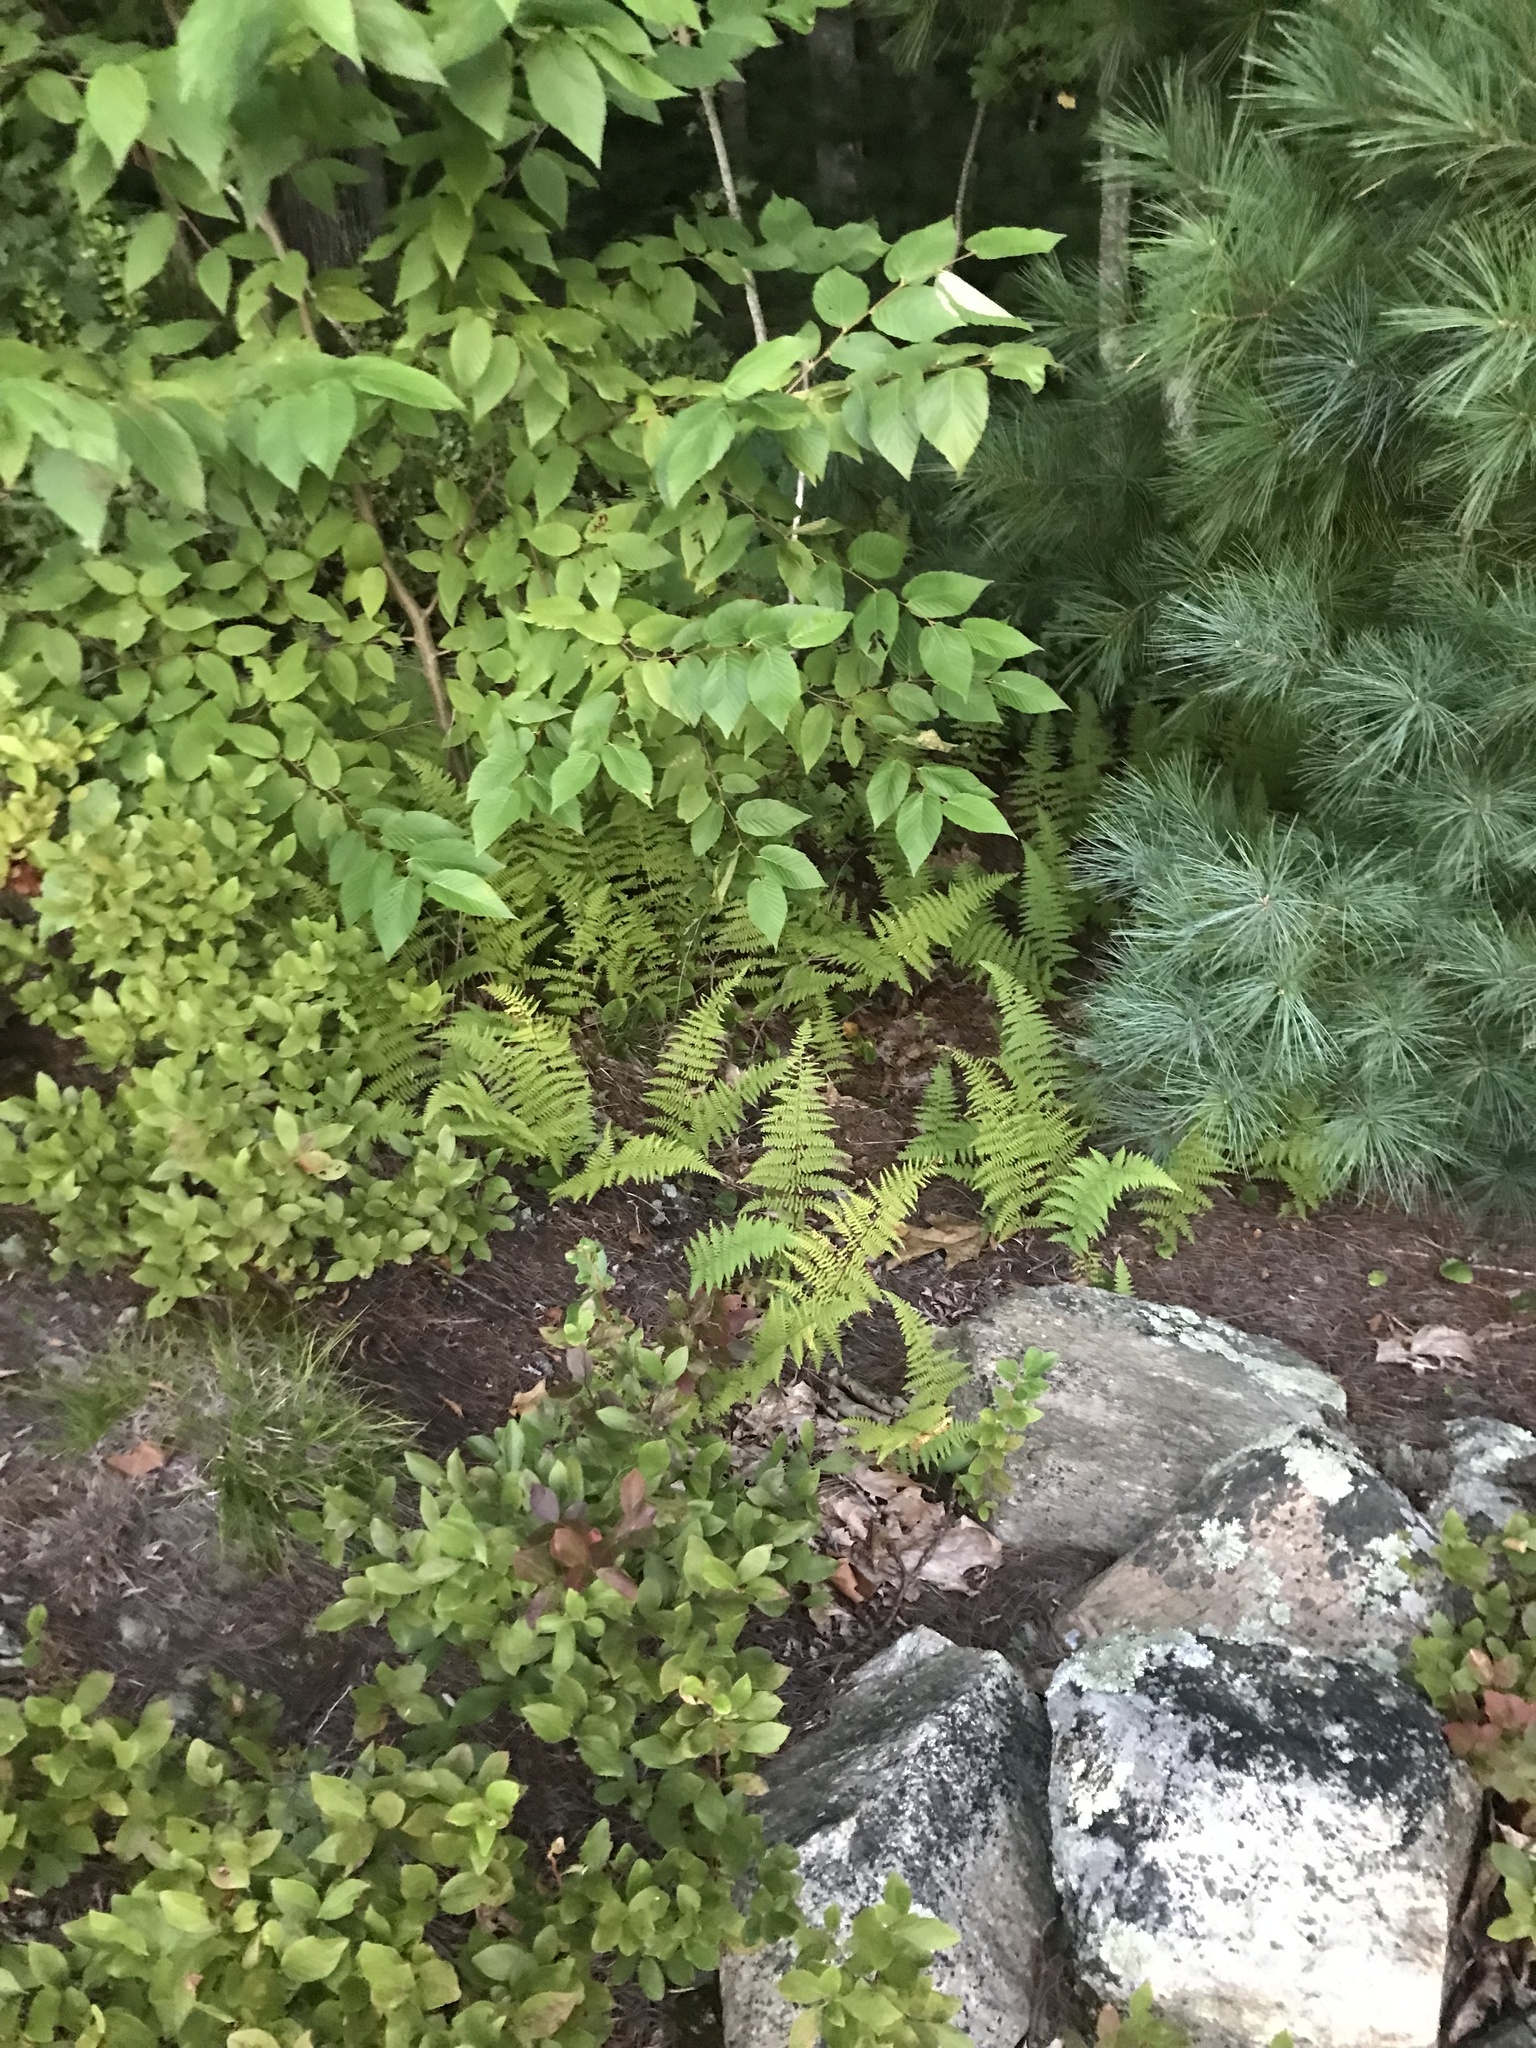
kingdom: Plantae
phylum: Tracheophyta
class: Polypodiopsida
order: Polypodiales
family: Dennstaedtiaceae
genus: Sitobolium
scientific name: Sitobolium punctilobum
